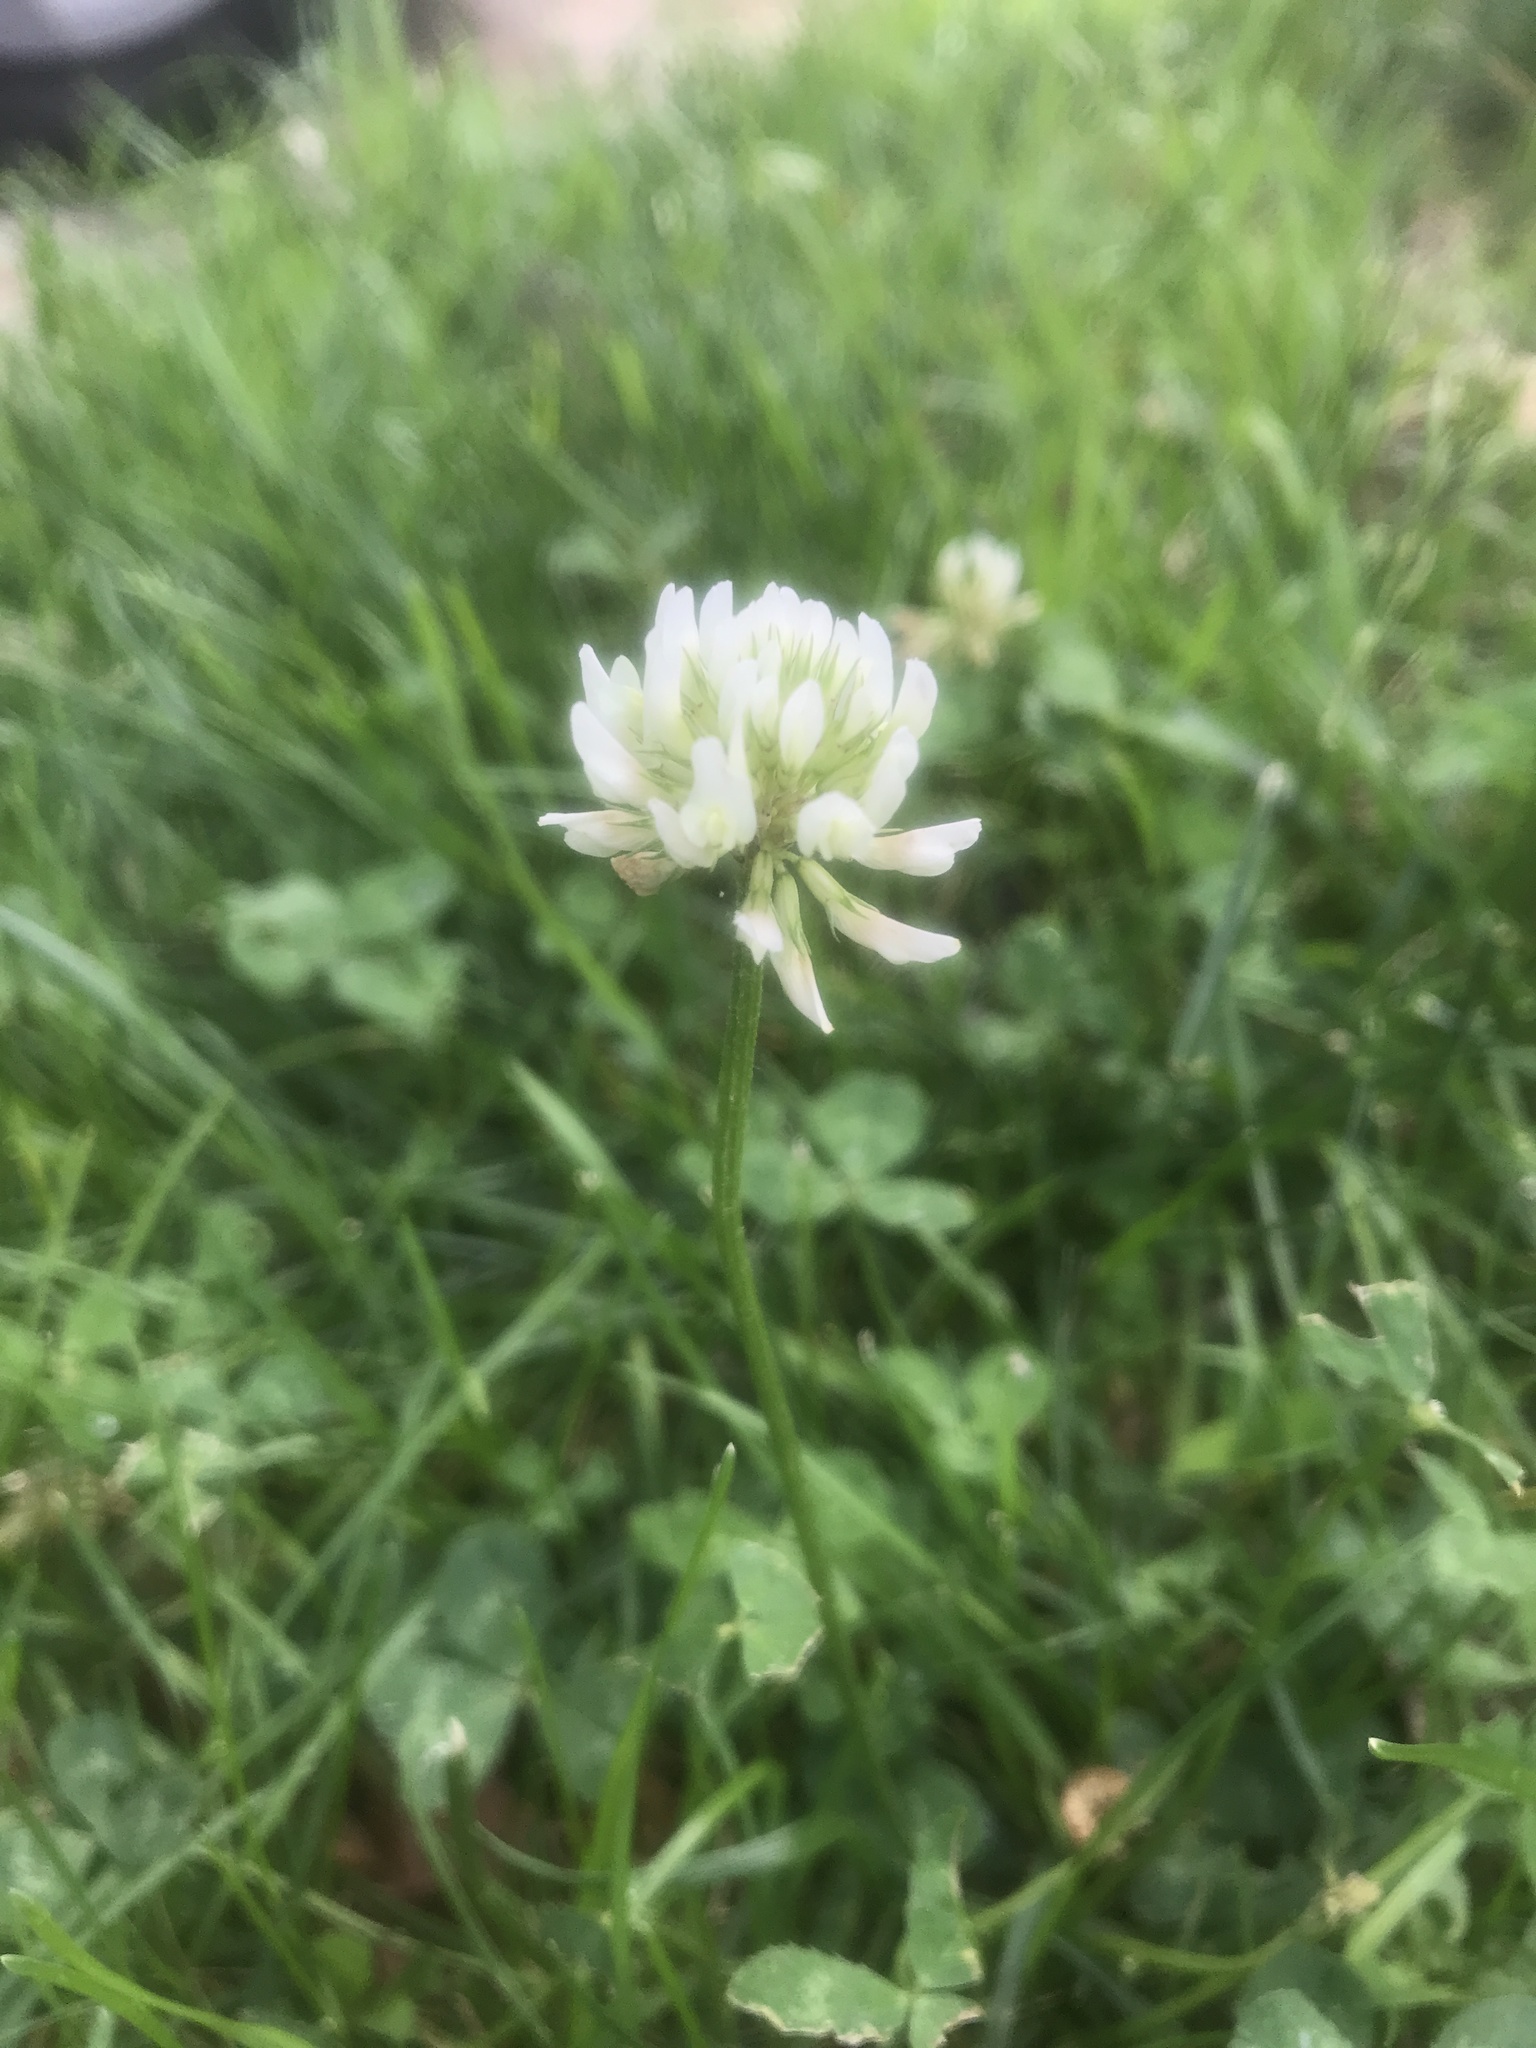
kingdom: Plantae
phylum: Tracheophyta
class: Magnoliopsida
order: Fabales
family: Fabaceae
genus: Trifolium
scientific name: Trifolium repens
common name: White clover
